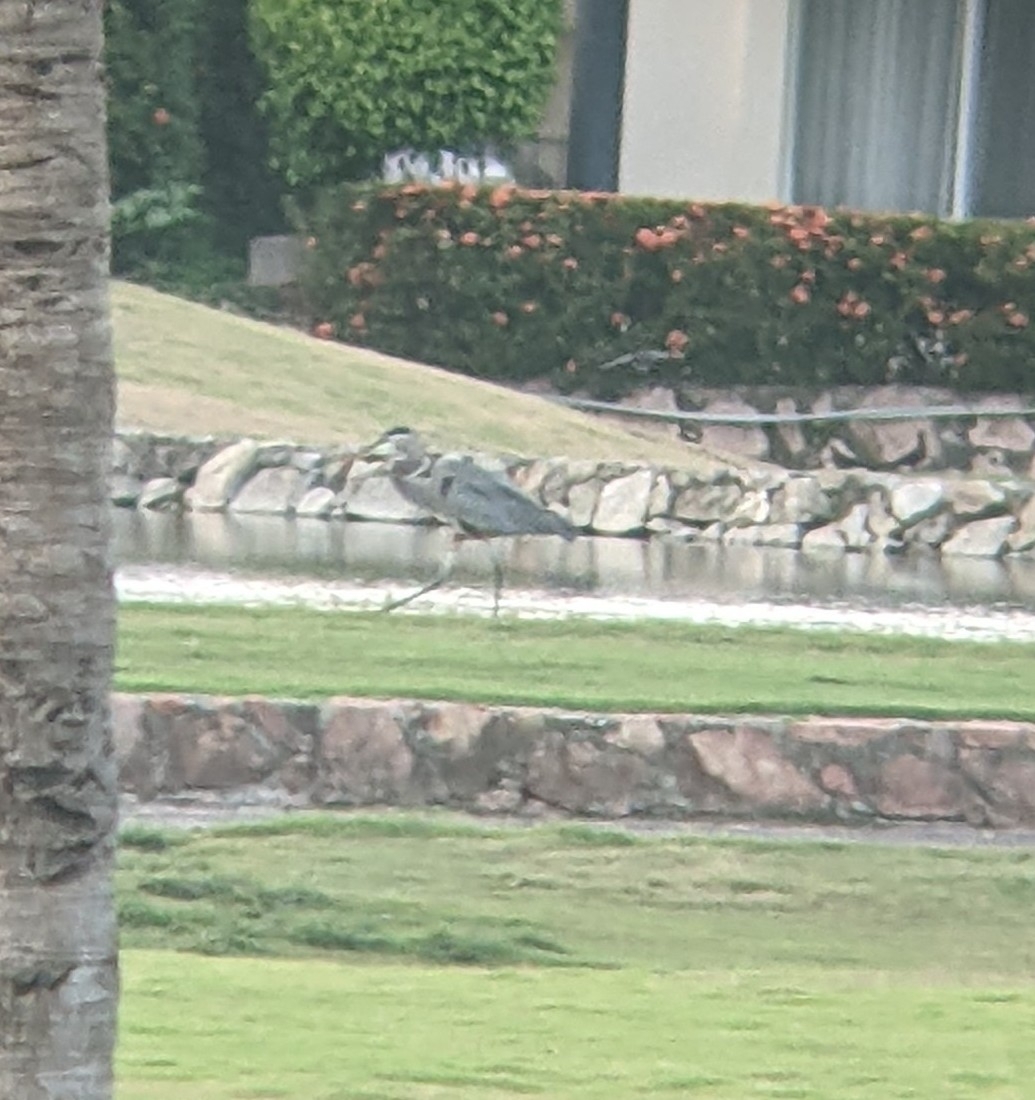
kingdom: Animalia
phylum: Chordata
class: Aves
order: Pelecaniformes
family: Ardeidae
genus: Ardea
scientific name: Ardea herodias
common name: Great blue heron
